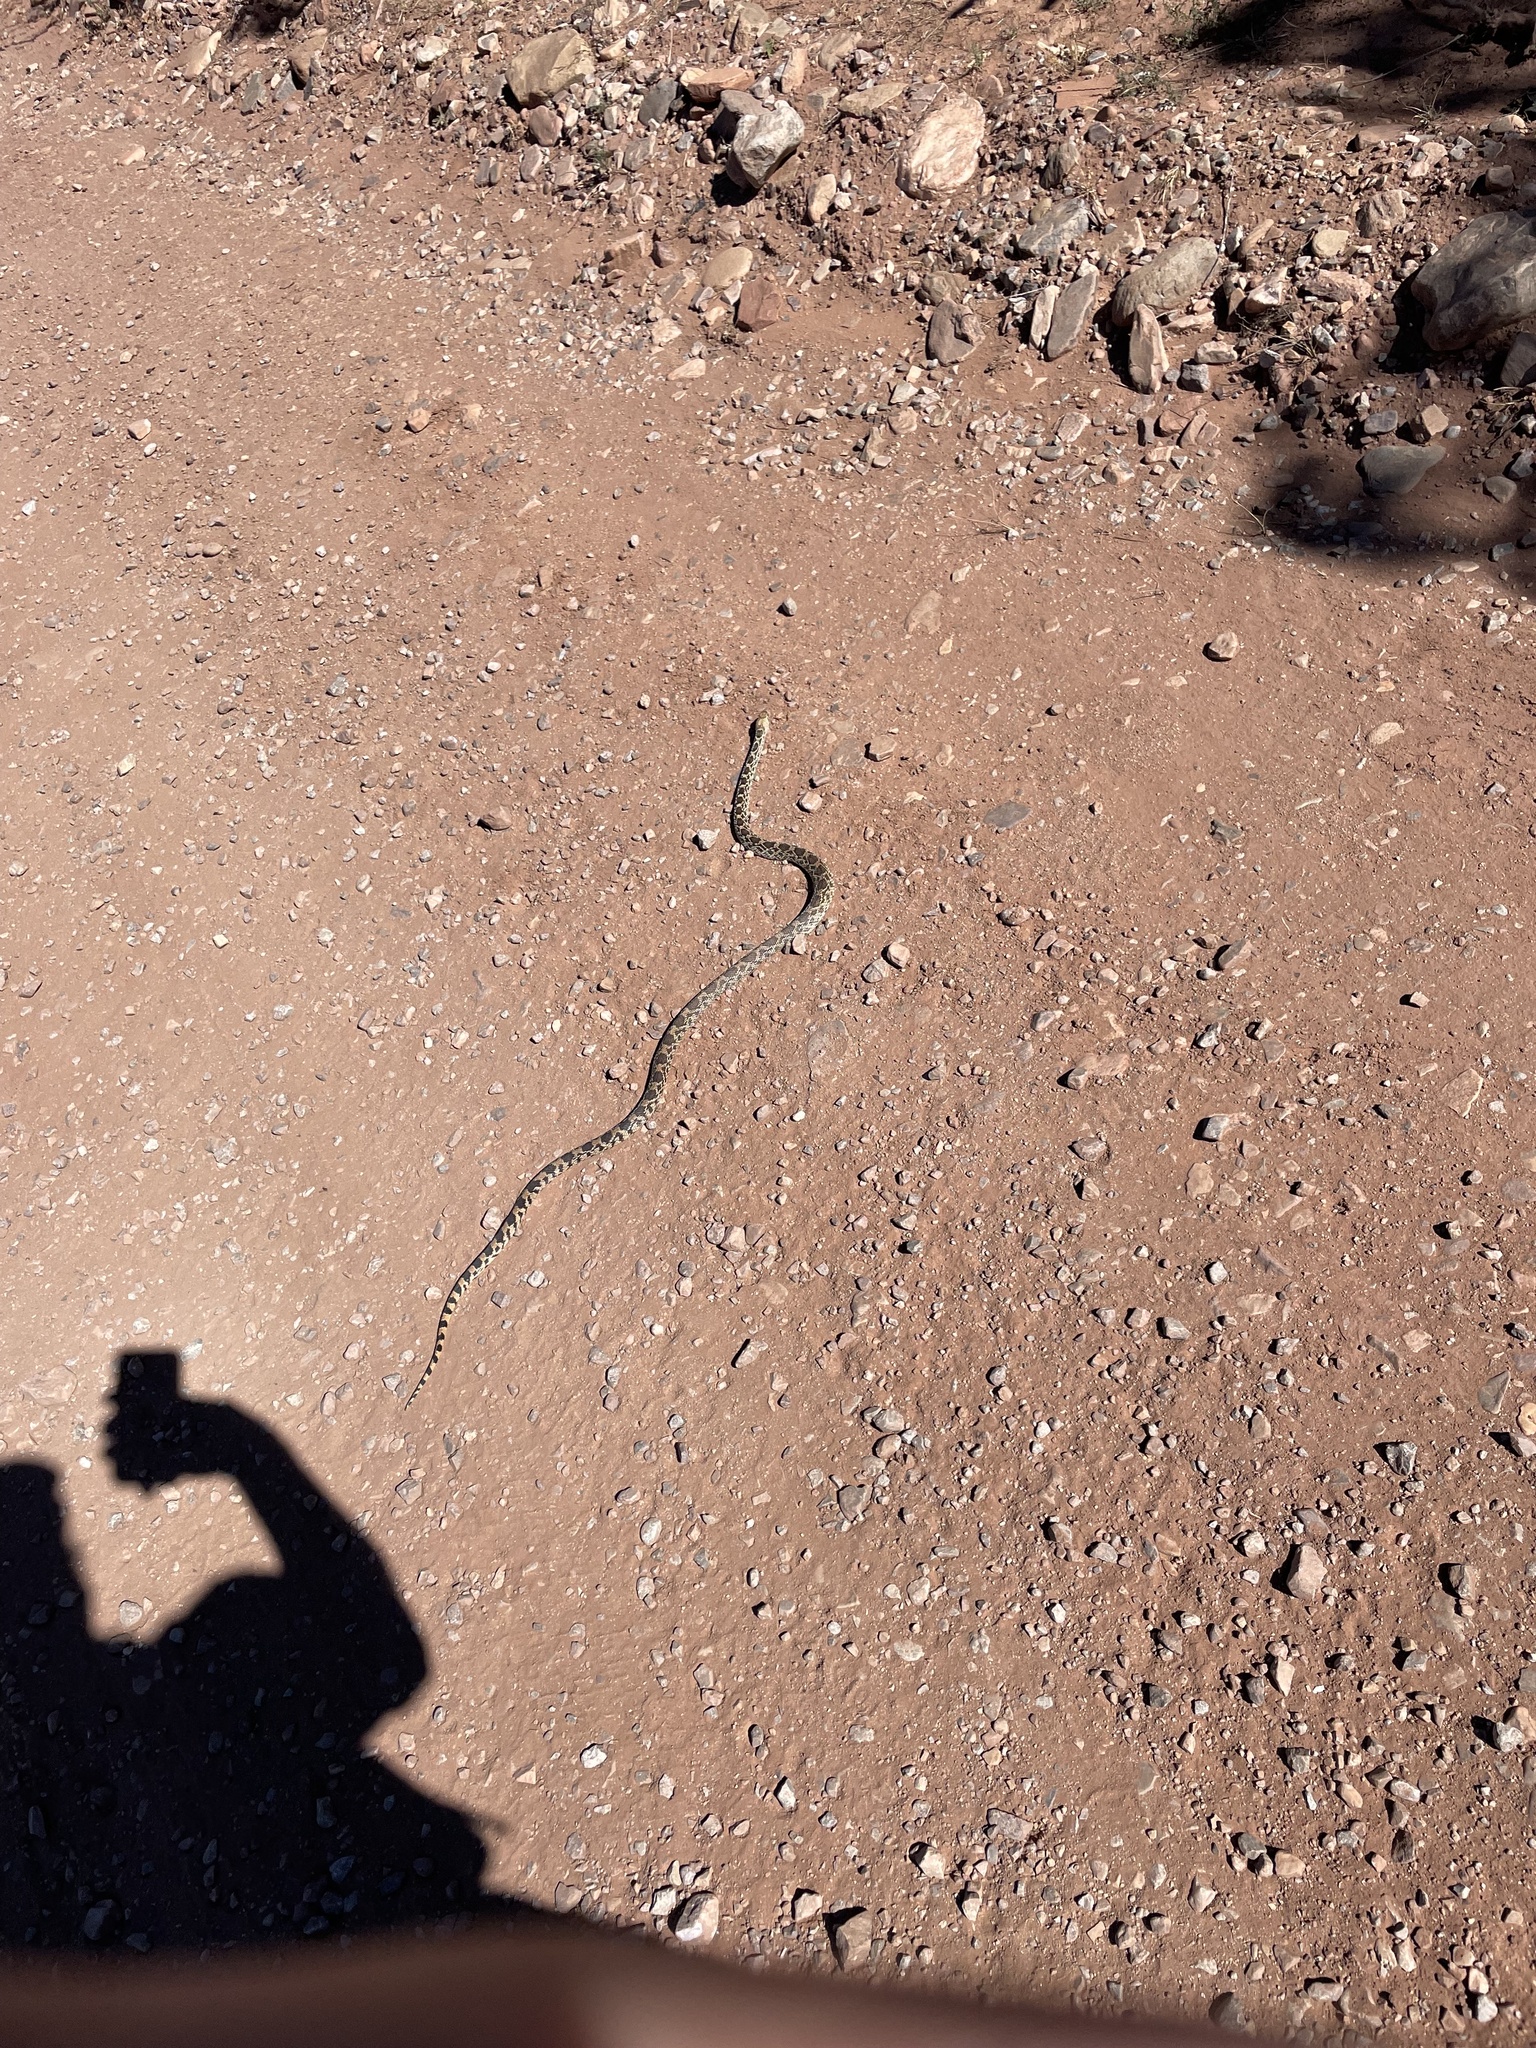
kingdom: Animalia
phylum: Chordata
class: Squamata
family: Colubridae
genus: Pituophis
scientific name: Pituophis catenifer
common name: Gopher snake
